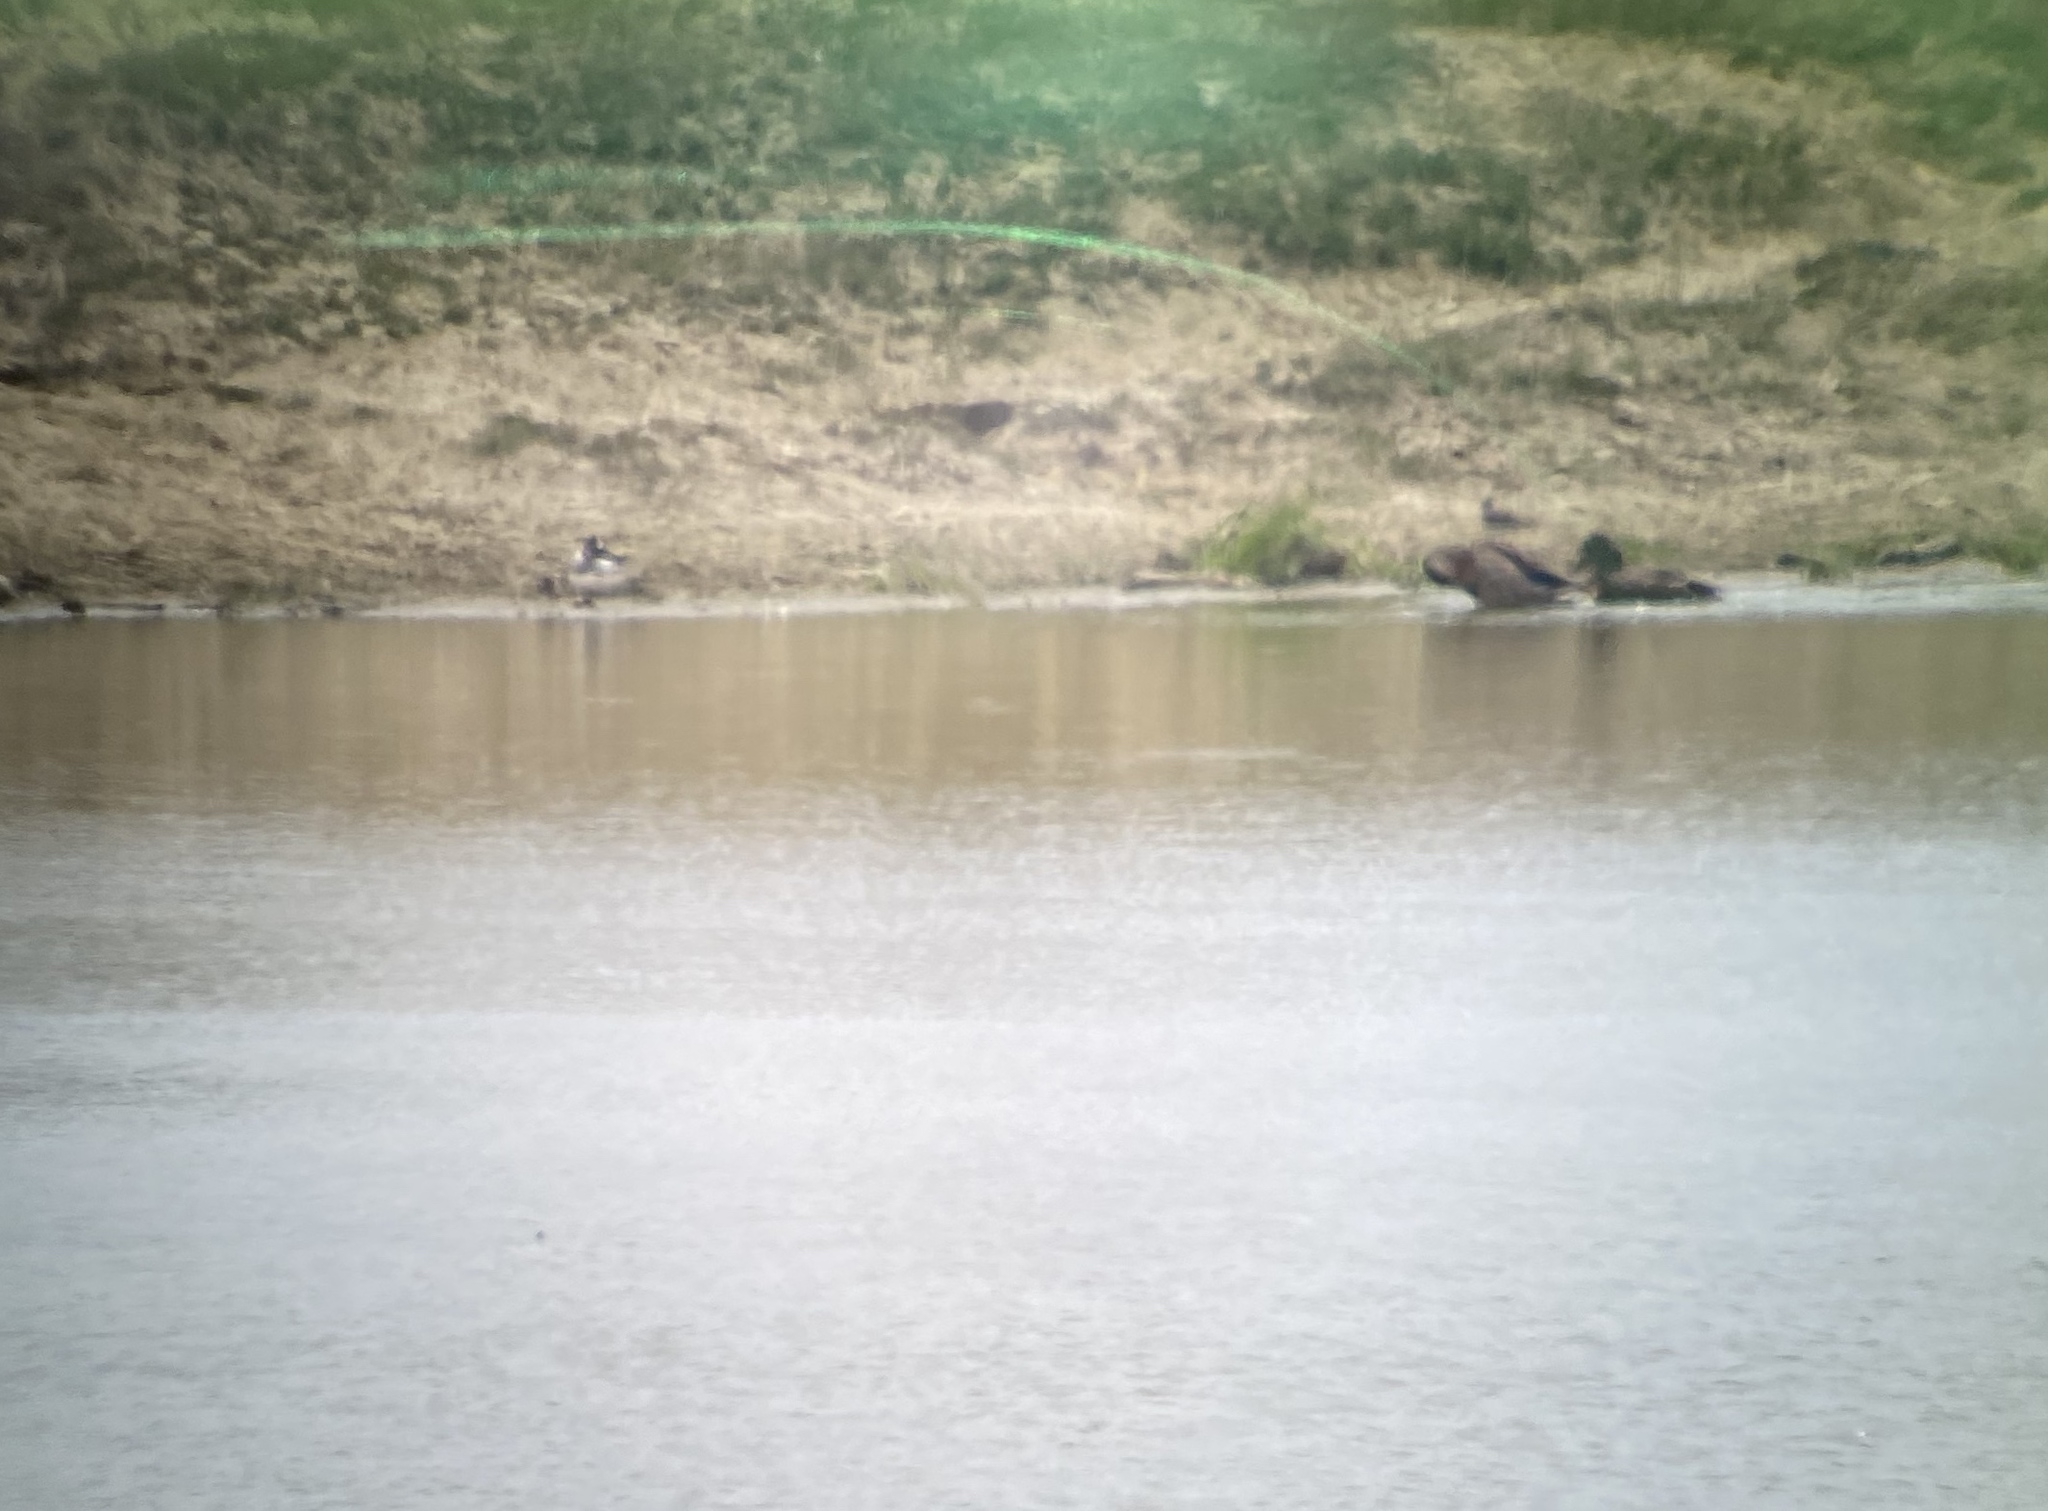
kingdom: Animalia
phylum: Chordata
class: Aves
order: Anseriformes
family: Anatidae
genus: Bucephala
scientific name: Bucephala albeola
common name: Bufflehead
